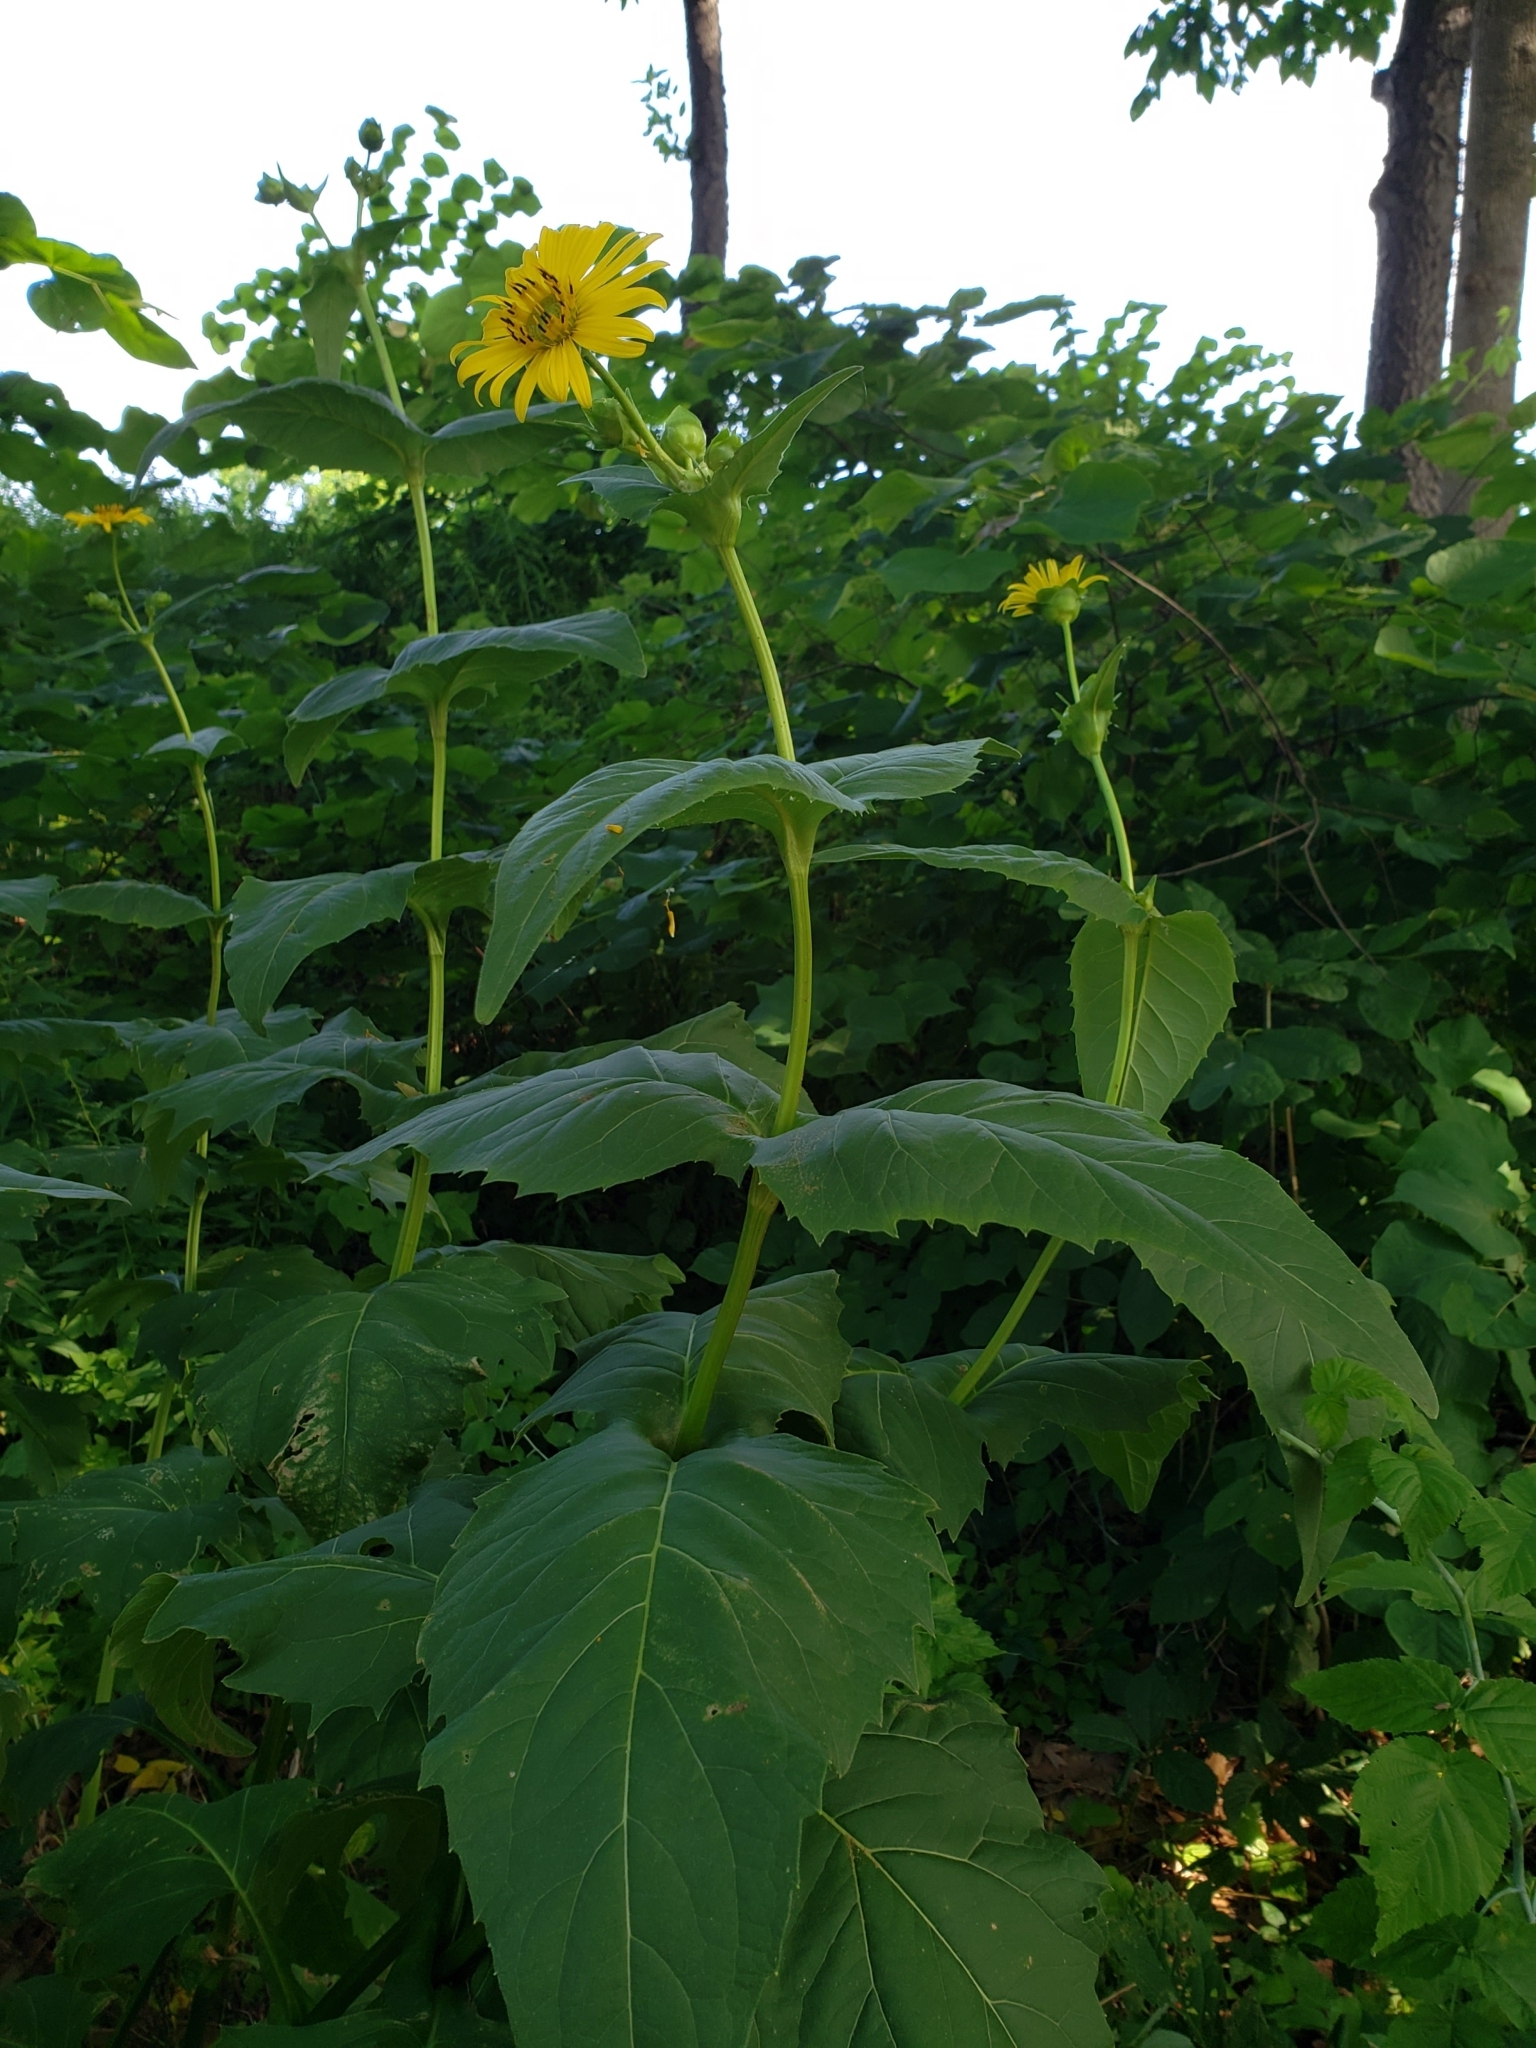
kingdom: Plantae
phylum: Tracheophyta
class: Magnoliopsida
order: Asterales
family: Asteraceae
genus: Silphium
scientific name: Silphium perfoliatum
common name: Cup-plant
